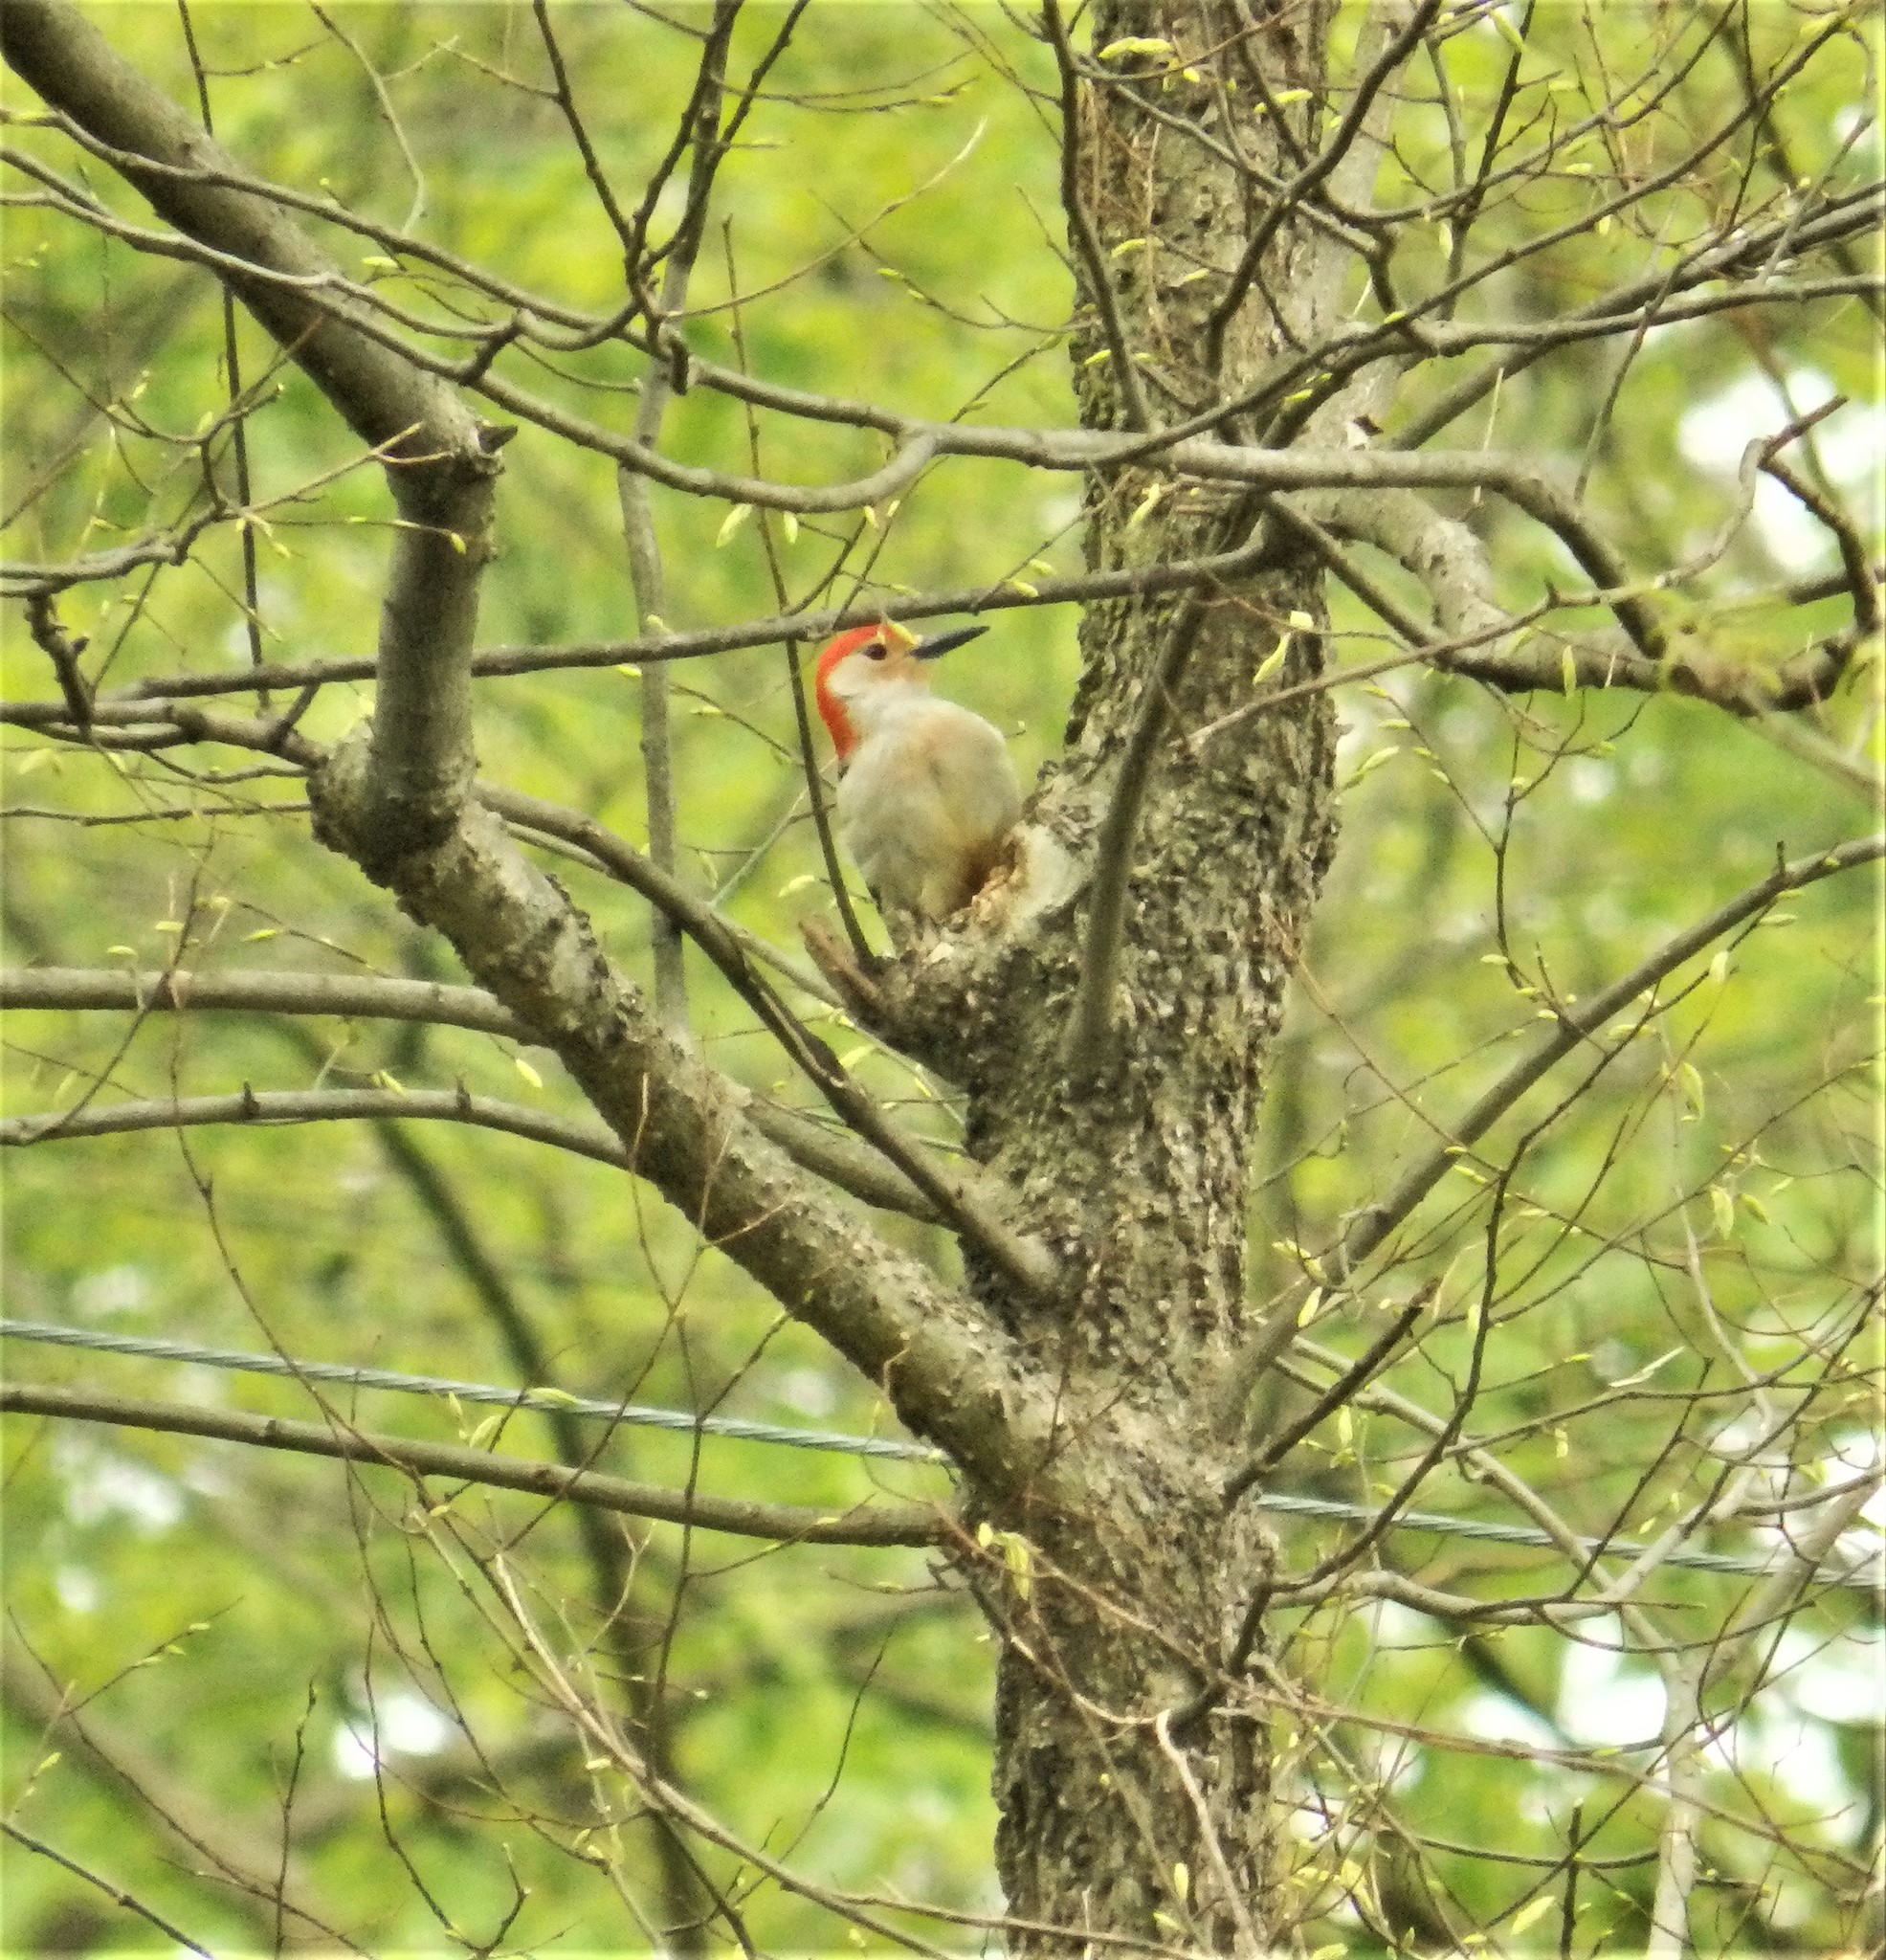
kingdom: Animalia
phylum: Chordata
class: Aves
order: Piciformes
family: Picidae
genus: Melanerpes
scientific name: Melanerpes carolinus
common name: Red-bellied woodpecker
